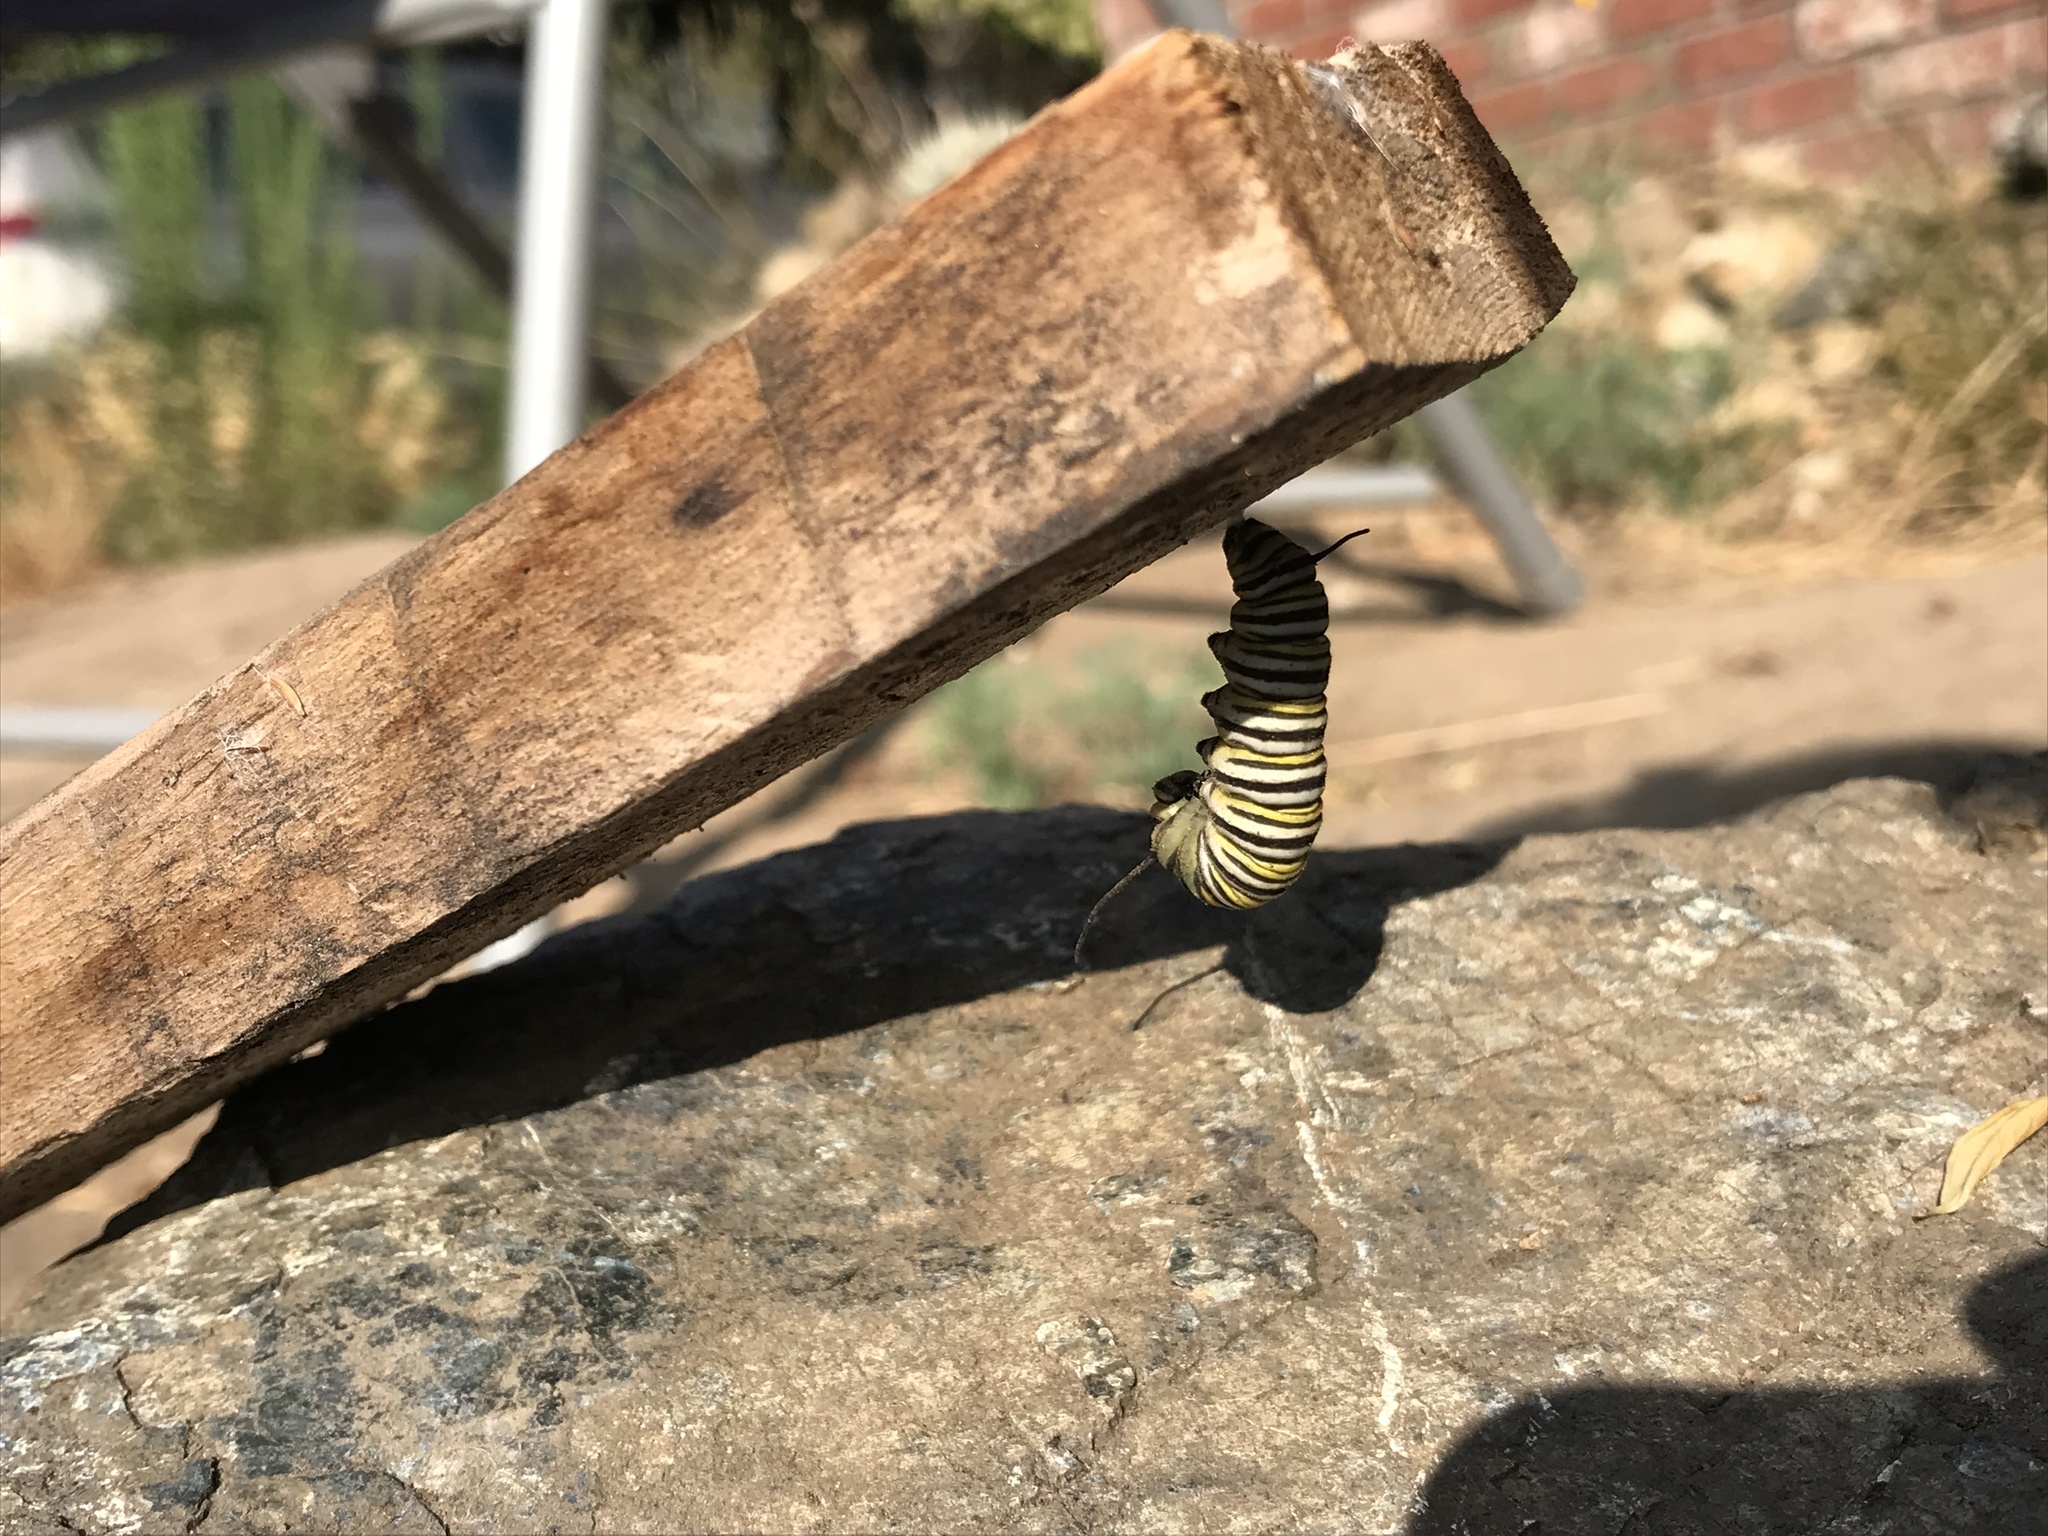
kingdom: Animalia
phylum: Arthropoda
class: Insecta
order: Lepidoptera
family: Nymphalidae
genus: Danaus
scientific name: Danaus plexippus
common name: Monarch
